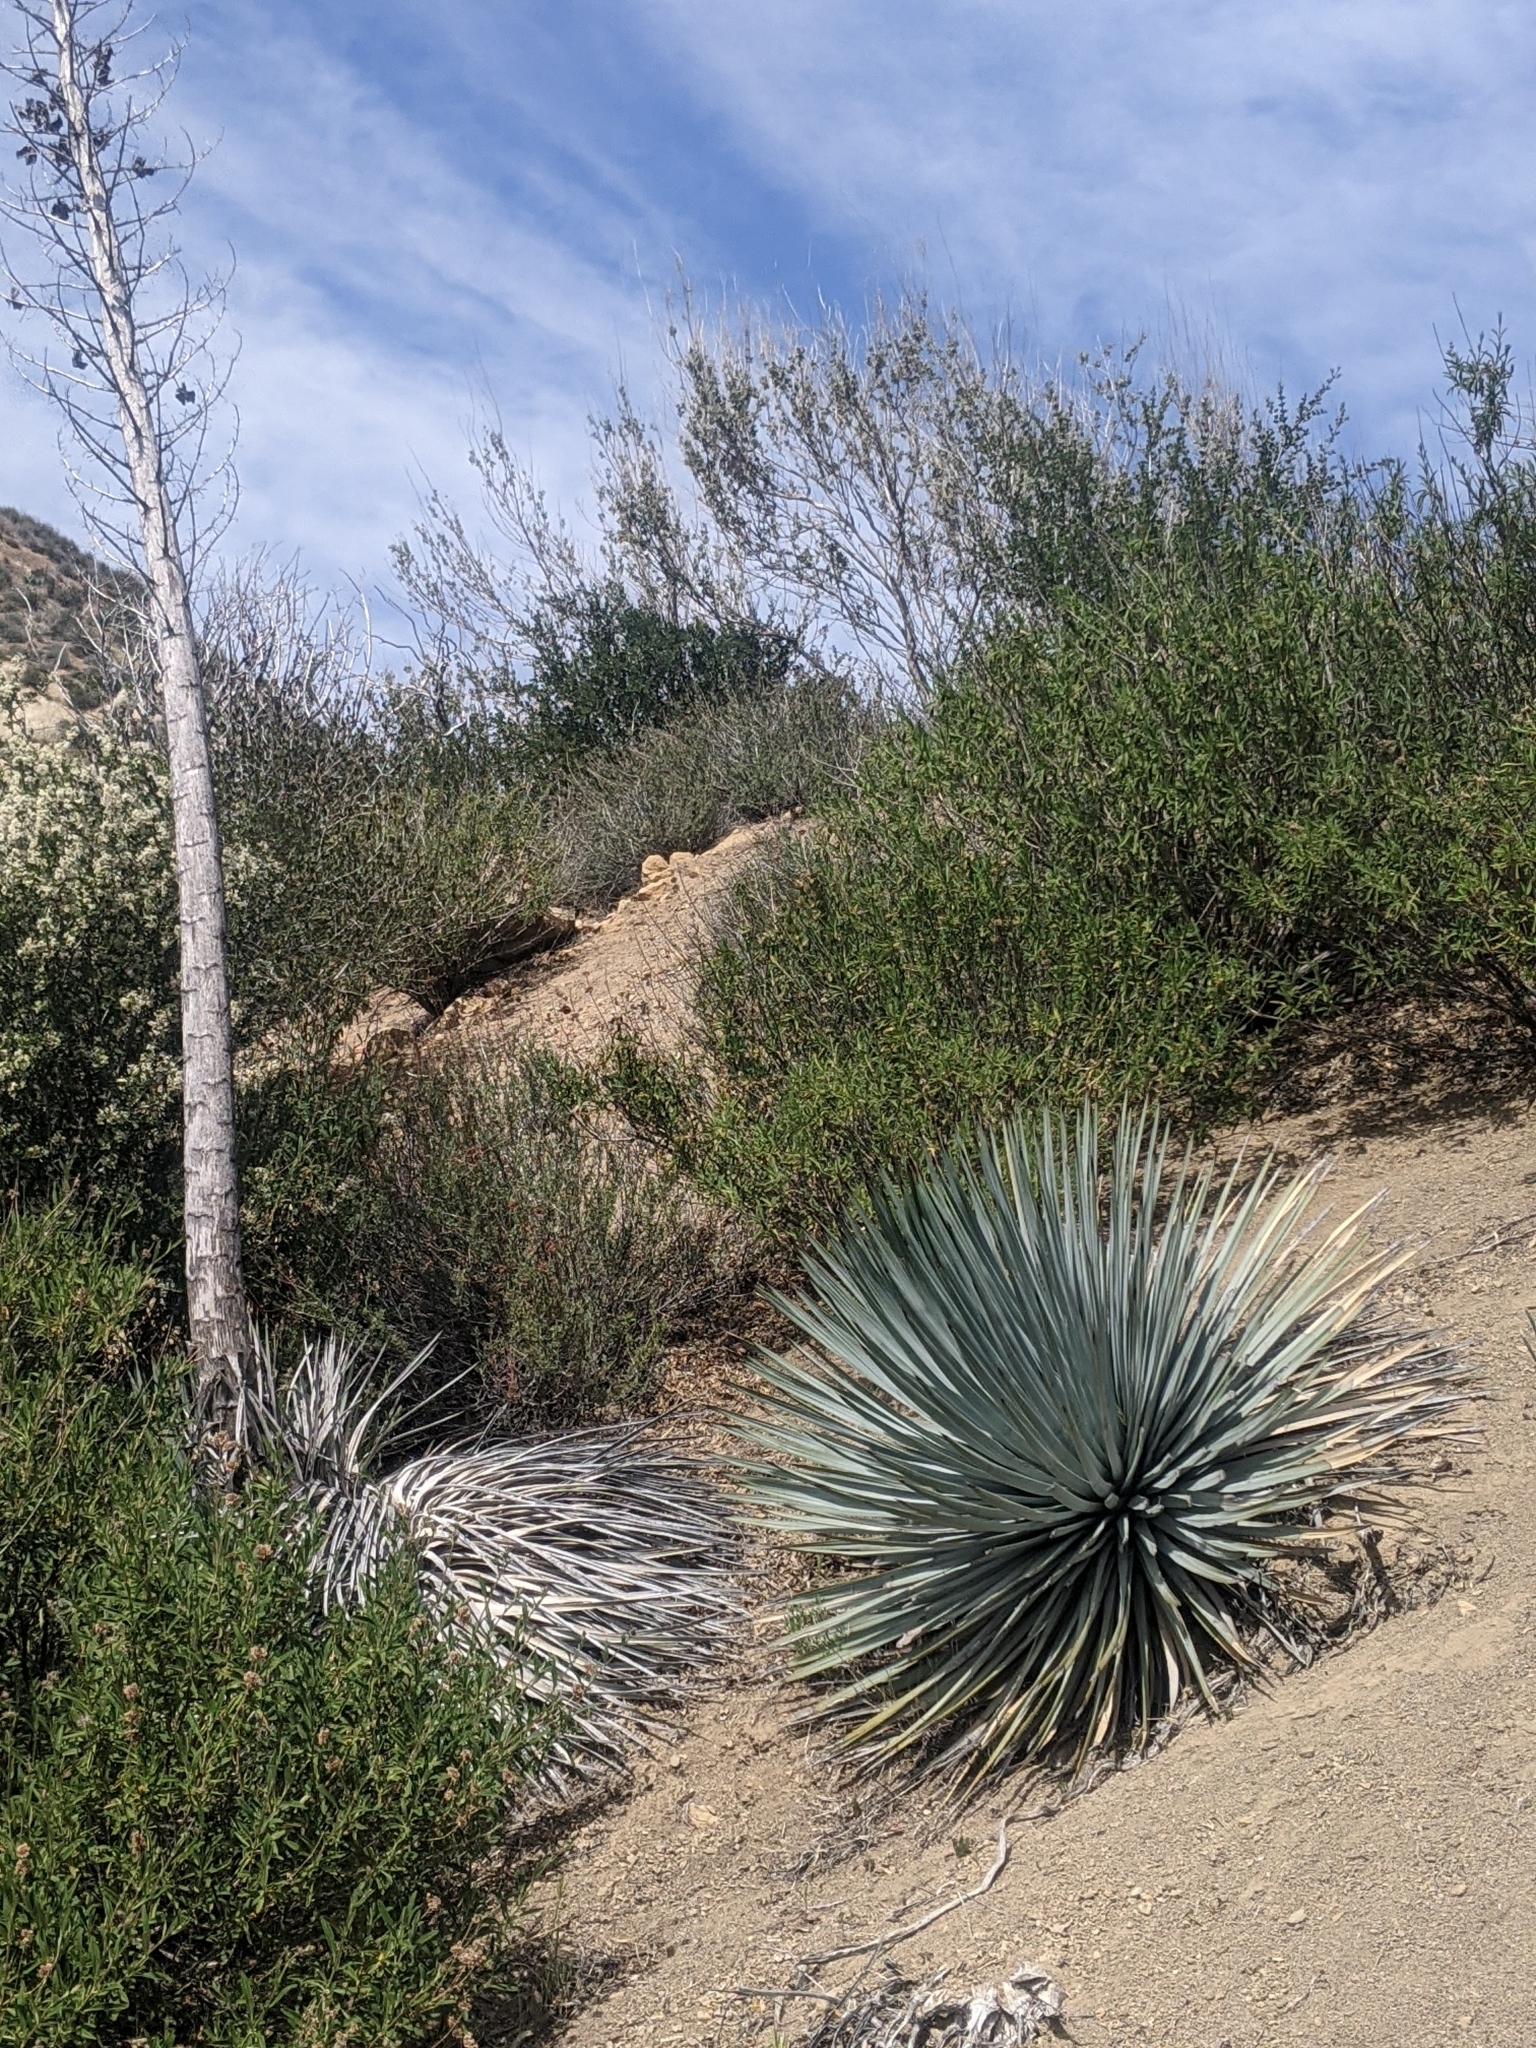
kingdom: Plantae
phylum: Tracheophyta
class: Liliopsida
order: Asparagales
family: Asparagaceae
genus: Hesperoyucca
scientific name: Hesperoyucca whipplei
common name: Our lord's-candle
